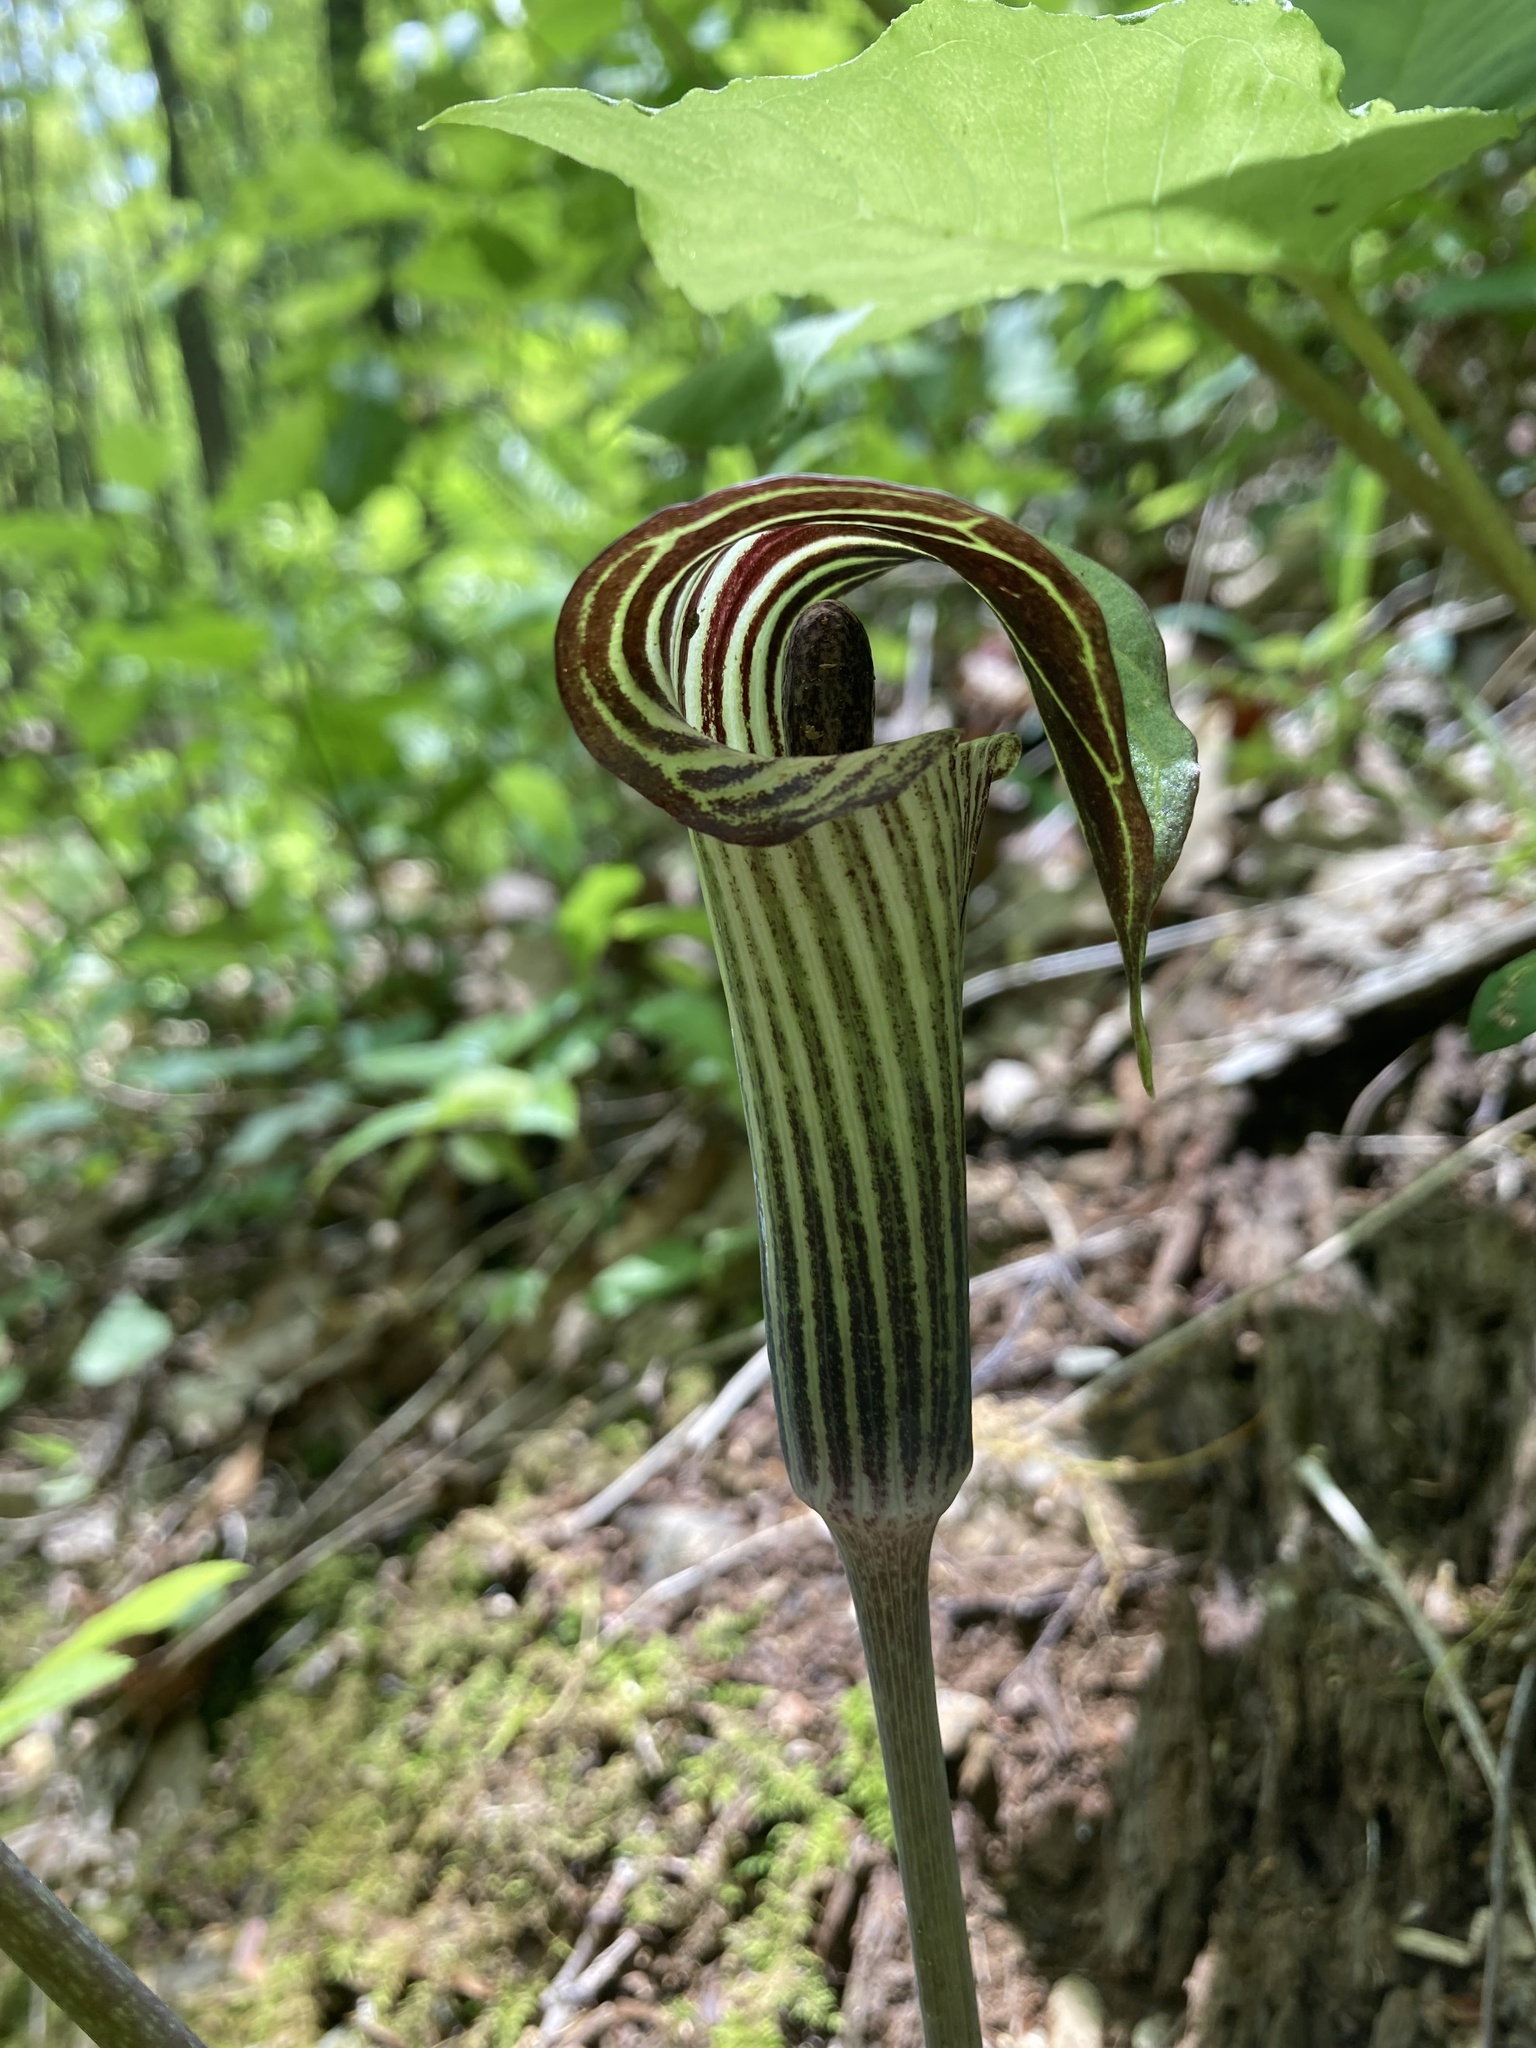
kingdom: Plantae
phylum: Tracheophyta
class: Liliopsida
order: Alismatales
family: Araceae
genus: Arisaema
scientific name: Arisaema triphyllum
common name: Jack-in-the-pulpit
